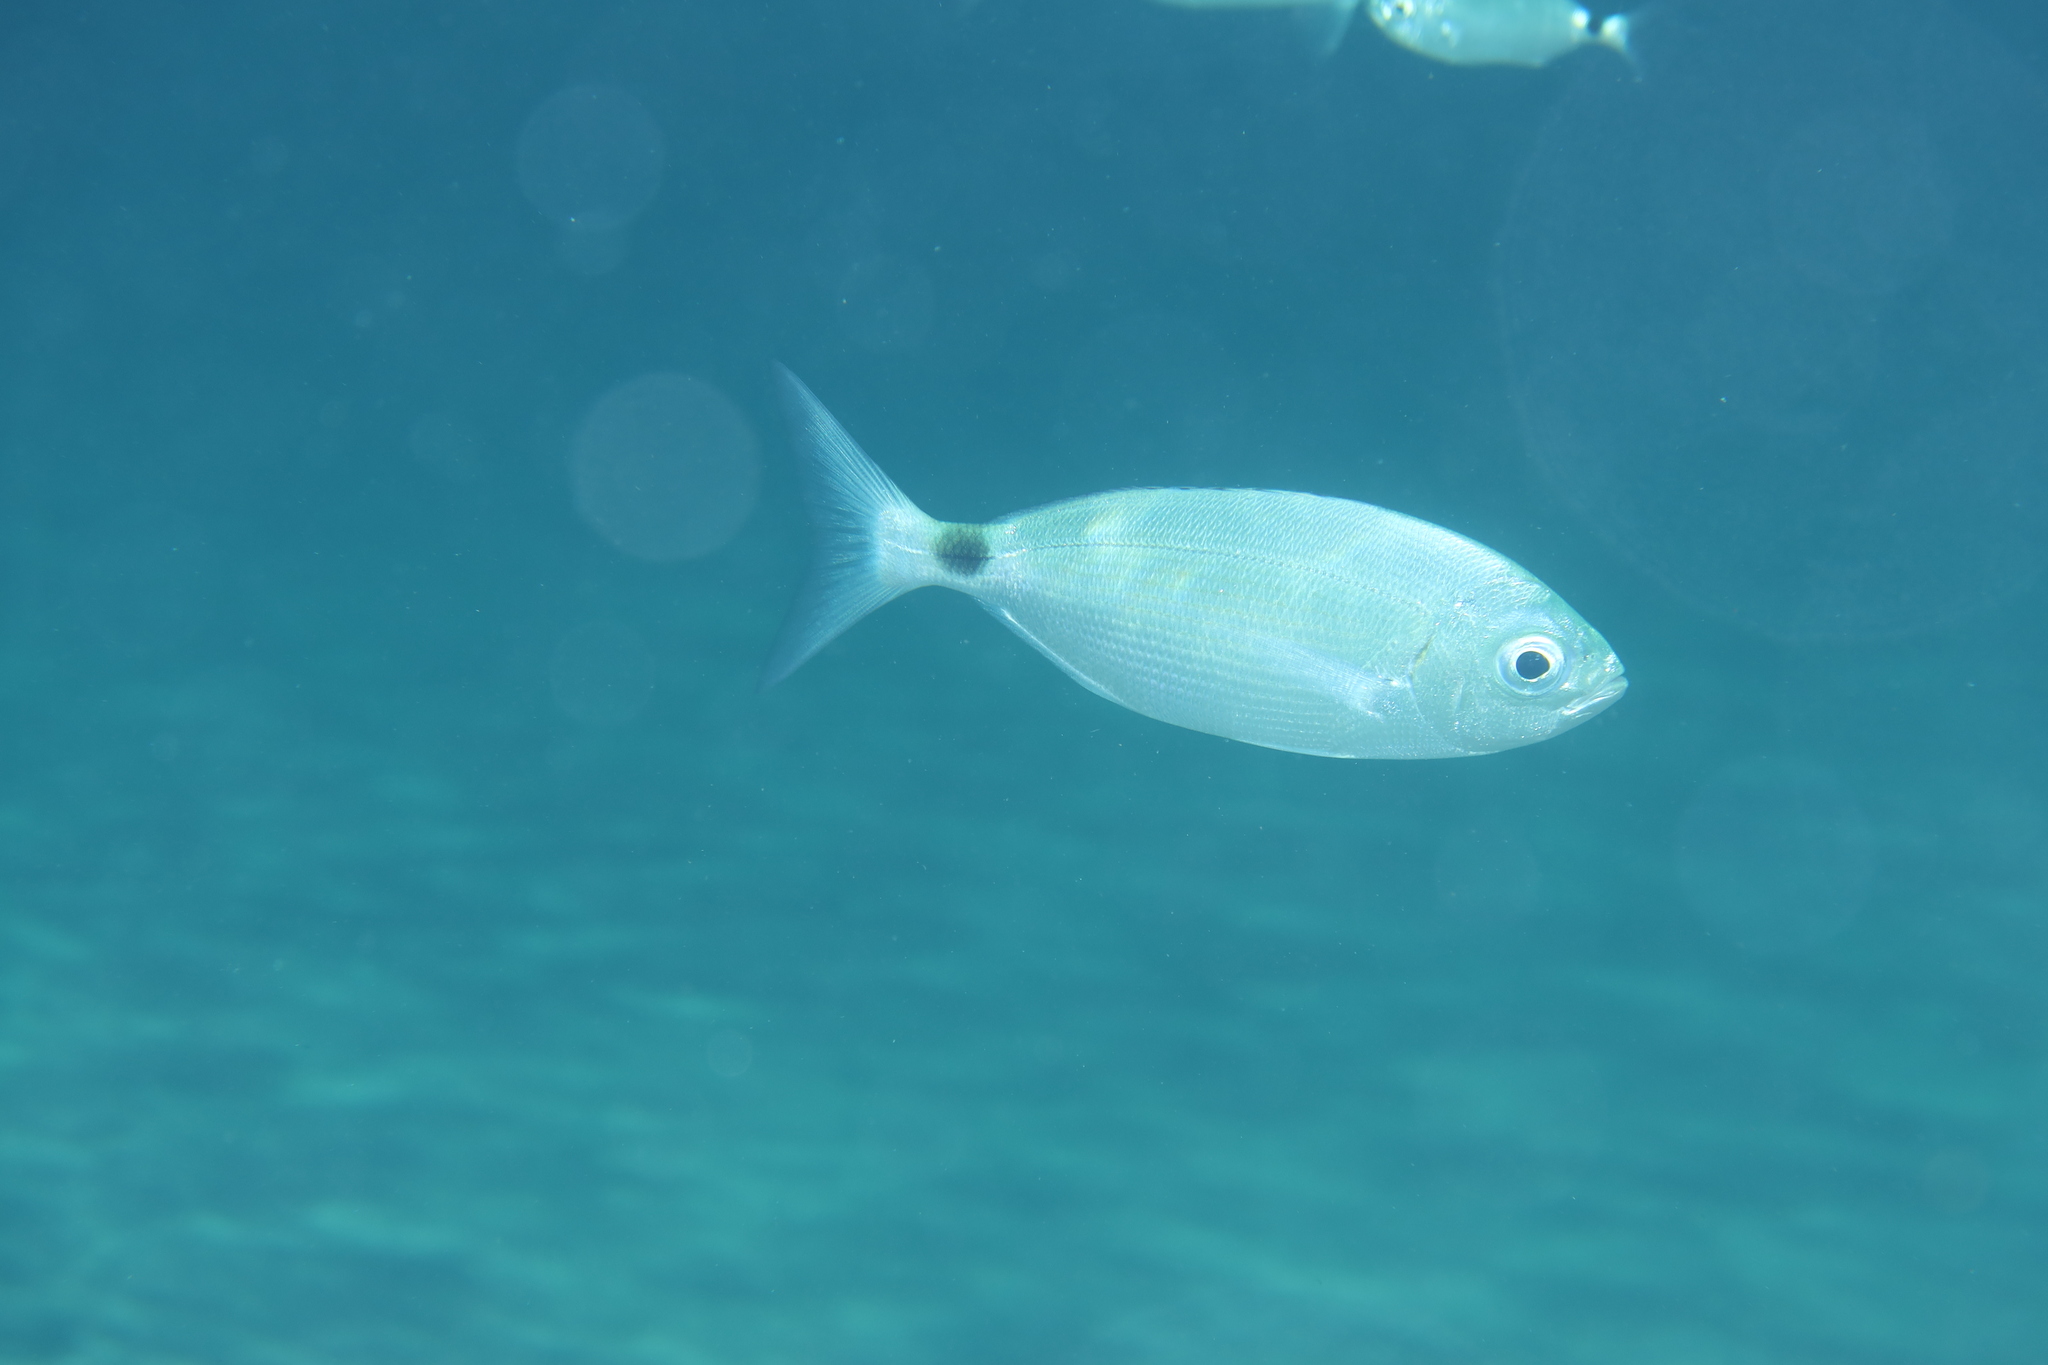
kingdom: Animalia
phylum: Chordata
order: Perciformes
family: Sparidae
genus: Oblada
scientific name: Oblada melanura
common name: Saddled seabream
